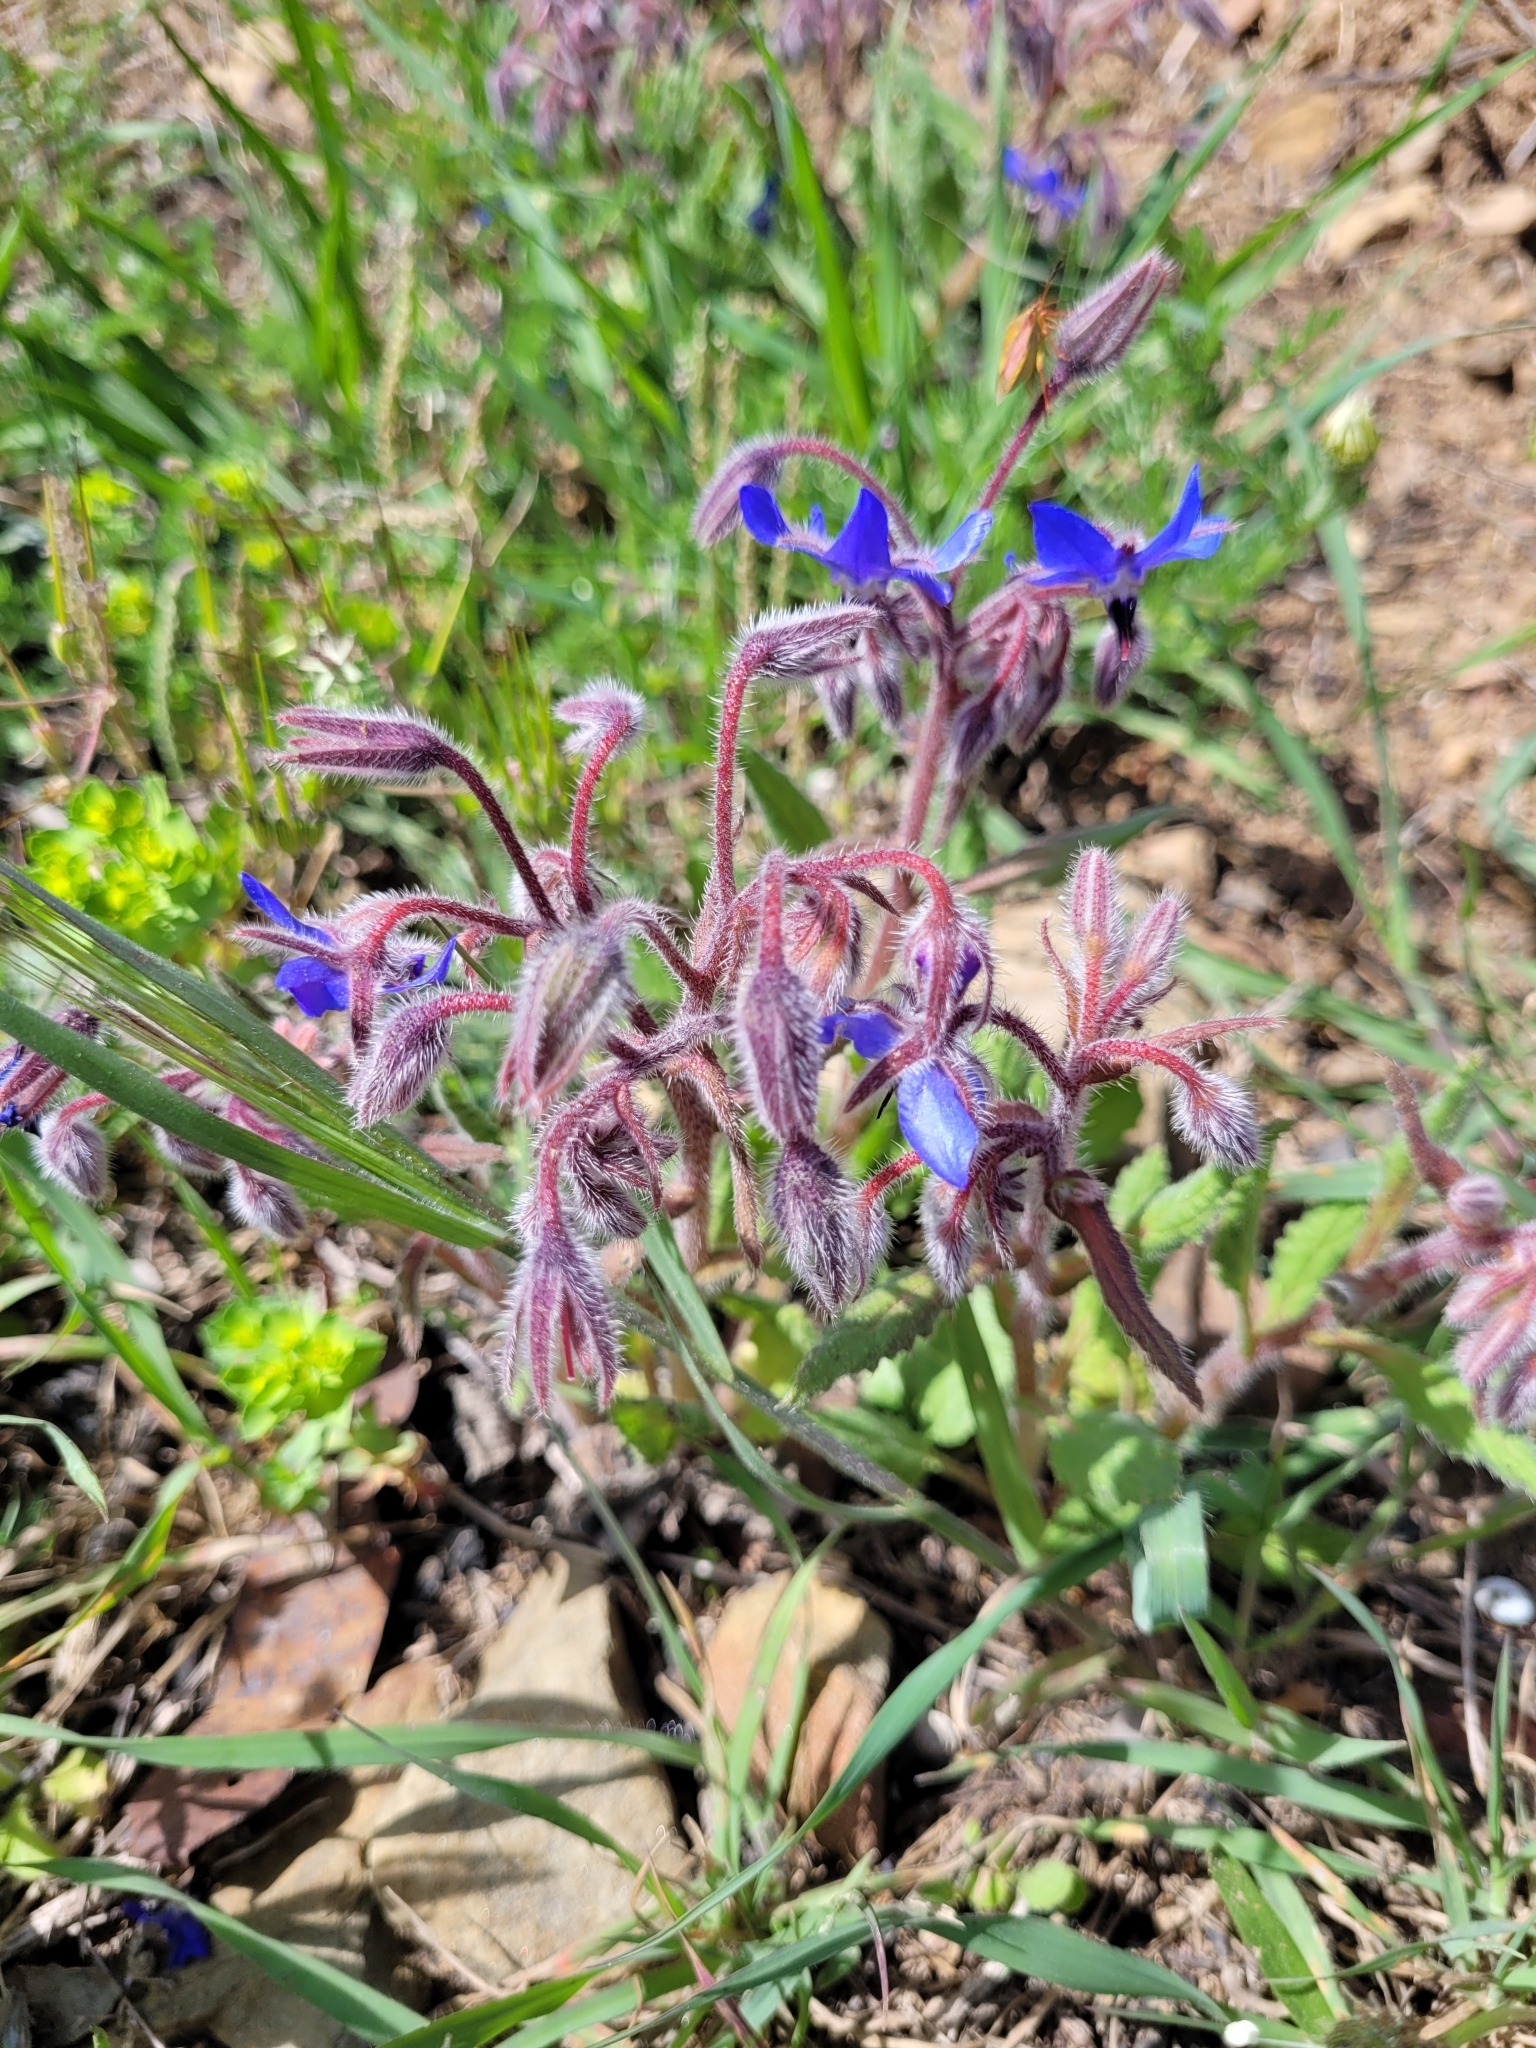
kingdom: Plantae
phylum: Tracheophyta
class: Magnoliopsida
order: Boraginales
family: Boraginaceae
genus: Borago
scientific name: Borago officinalis
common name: Borage
